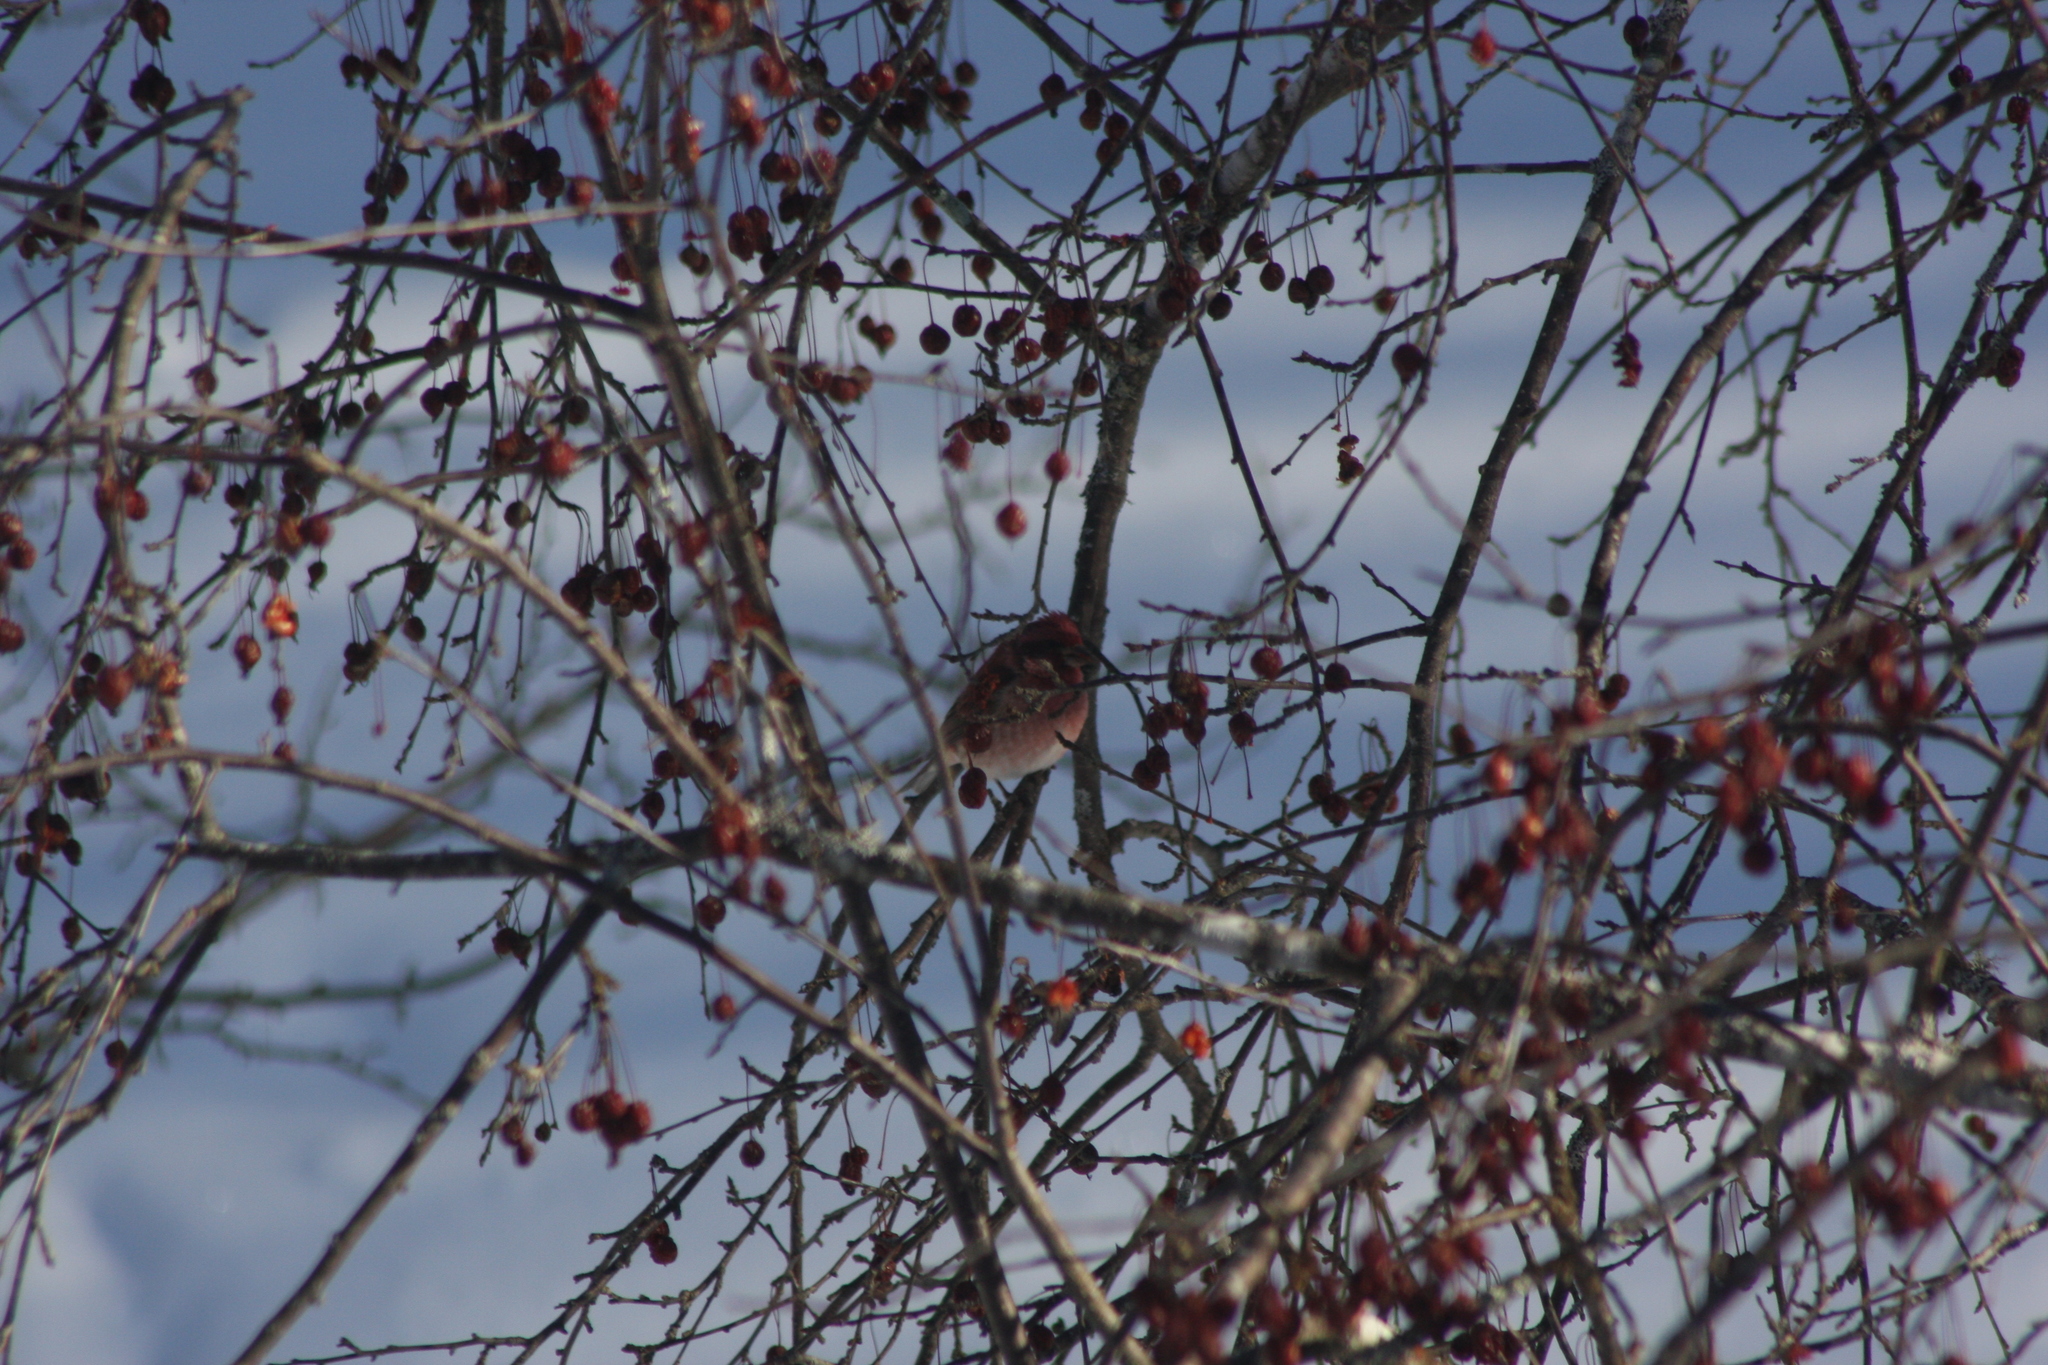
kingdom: Animalia
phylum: Chordata
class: Aves
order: Passeriformes
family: Fringillidae
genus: Haemorhous
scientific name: Haemorhous purpureus
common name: Purple finch
